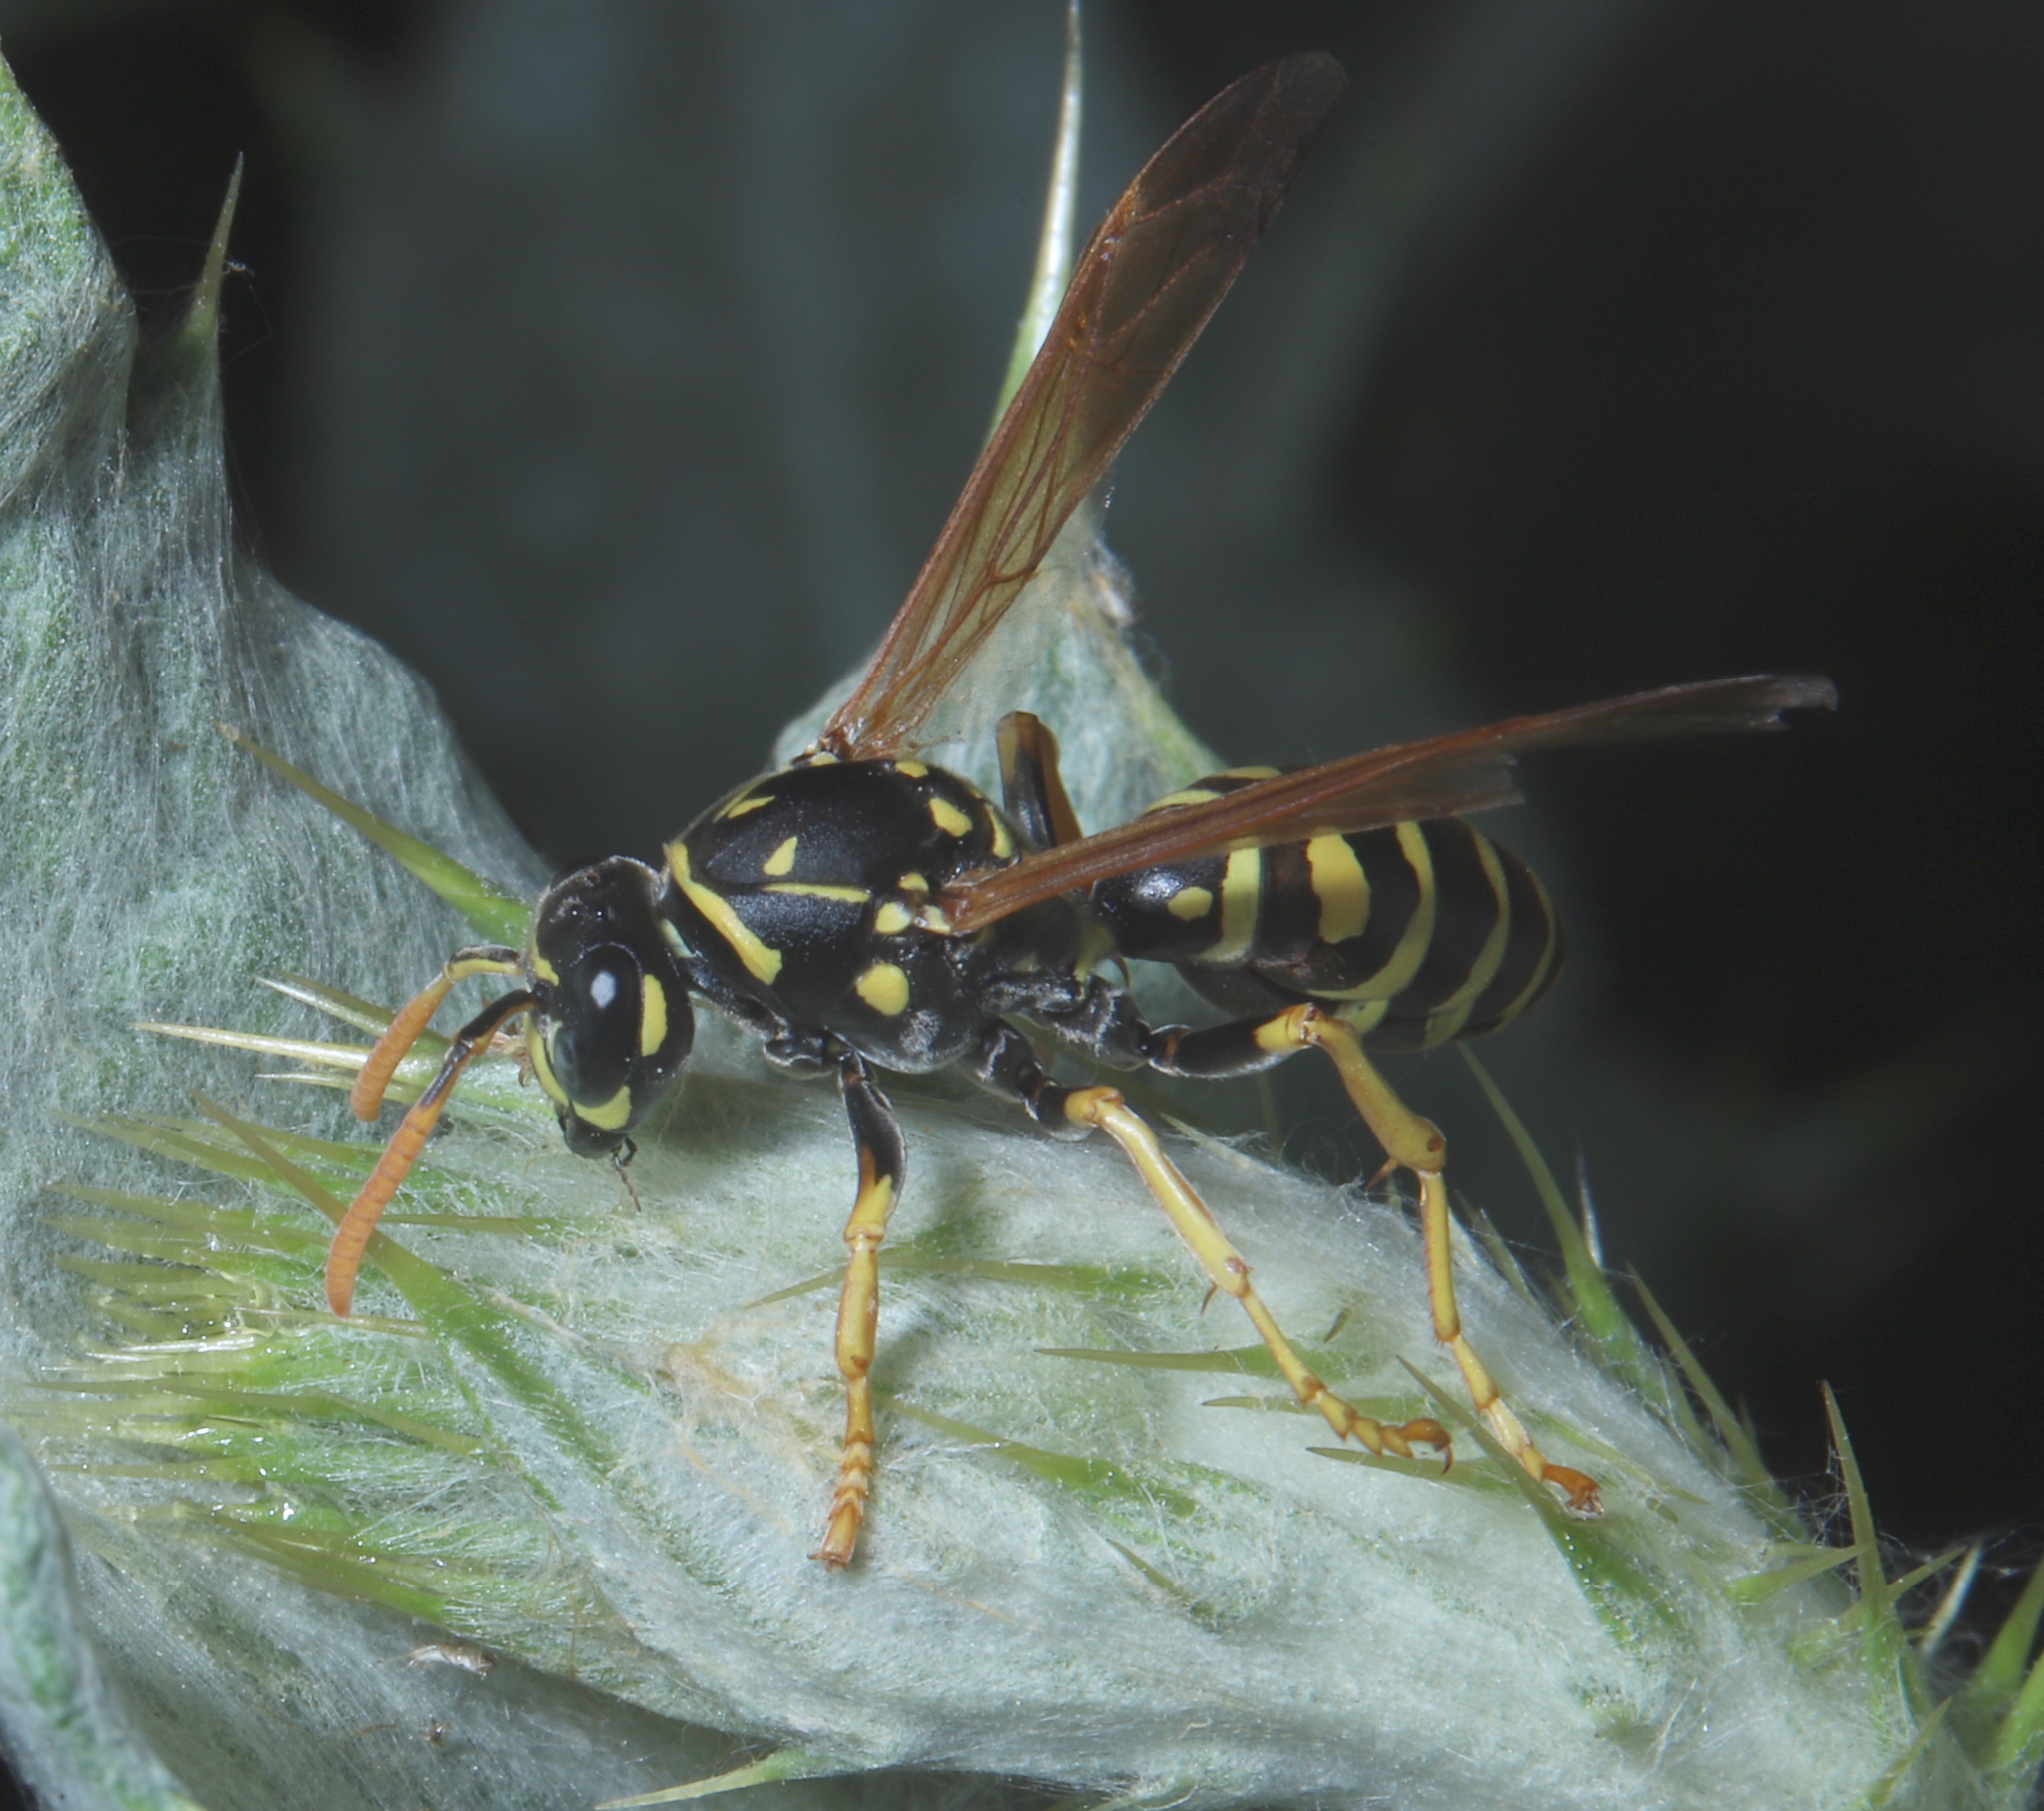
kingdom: Animalia
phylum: Arthropoda
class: Insecta
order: Hymenoptera
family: Eumenidae
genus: Polistes
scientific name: Polistes dominula
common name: Paper wasp
